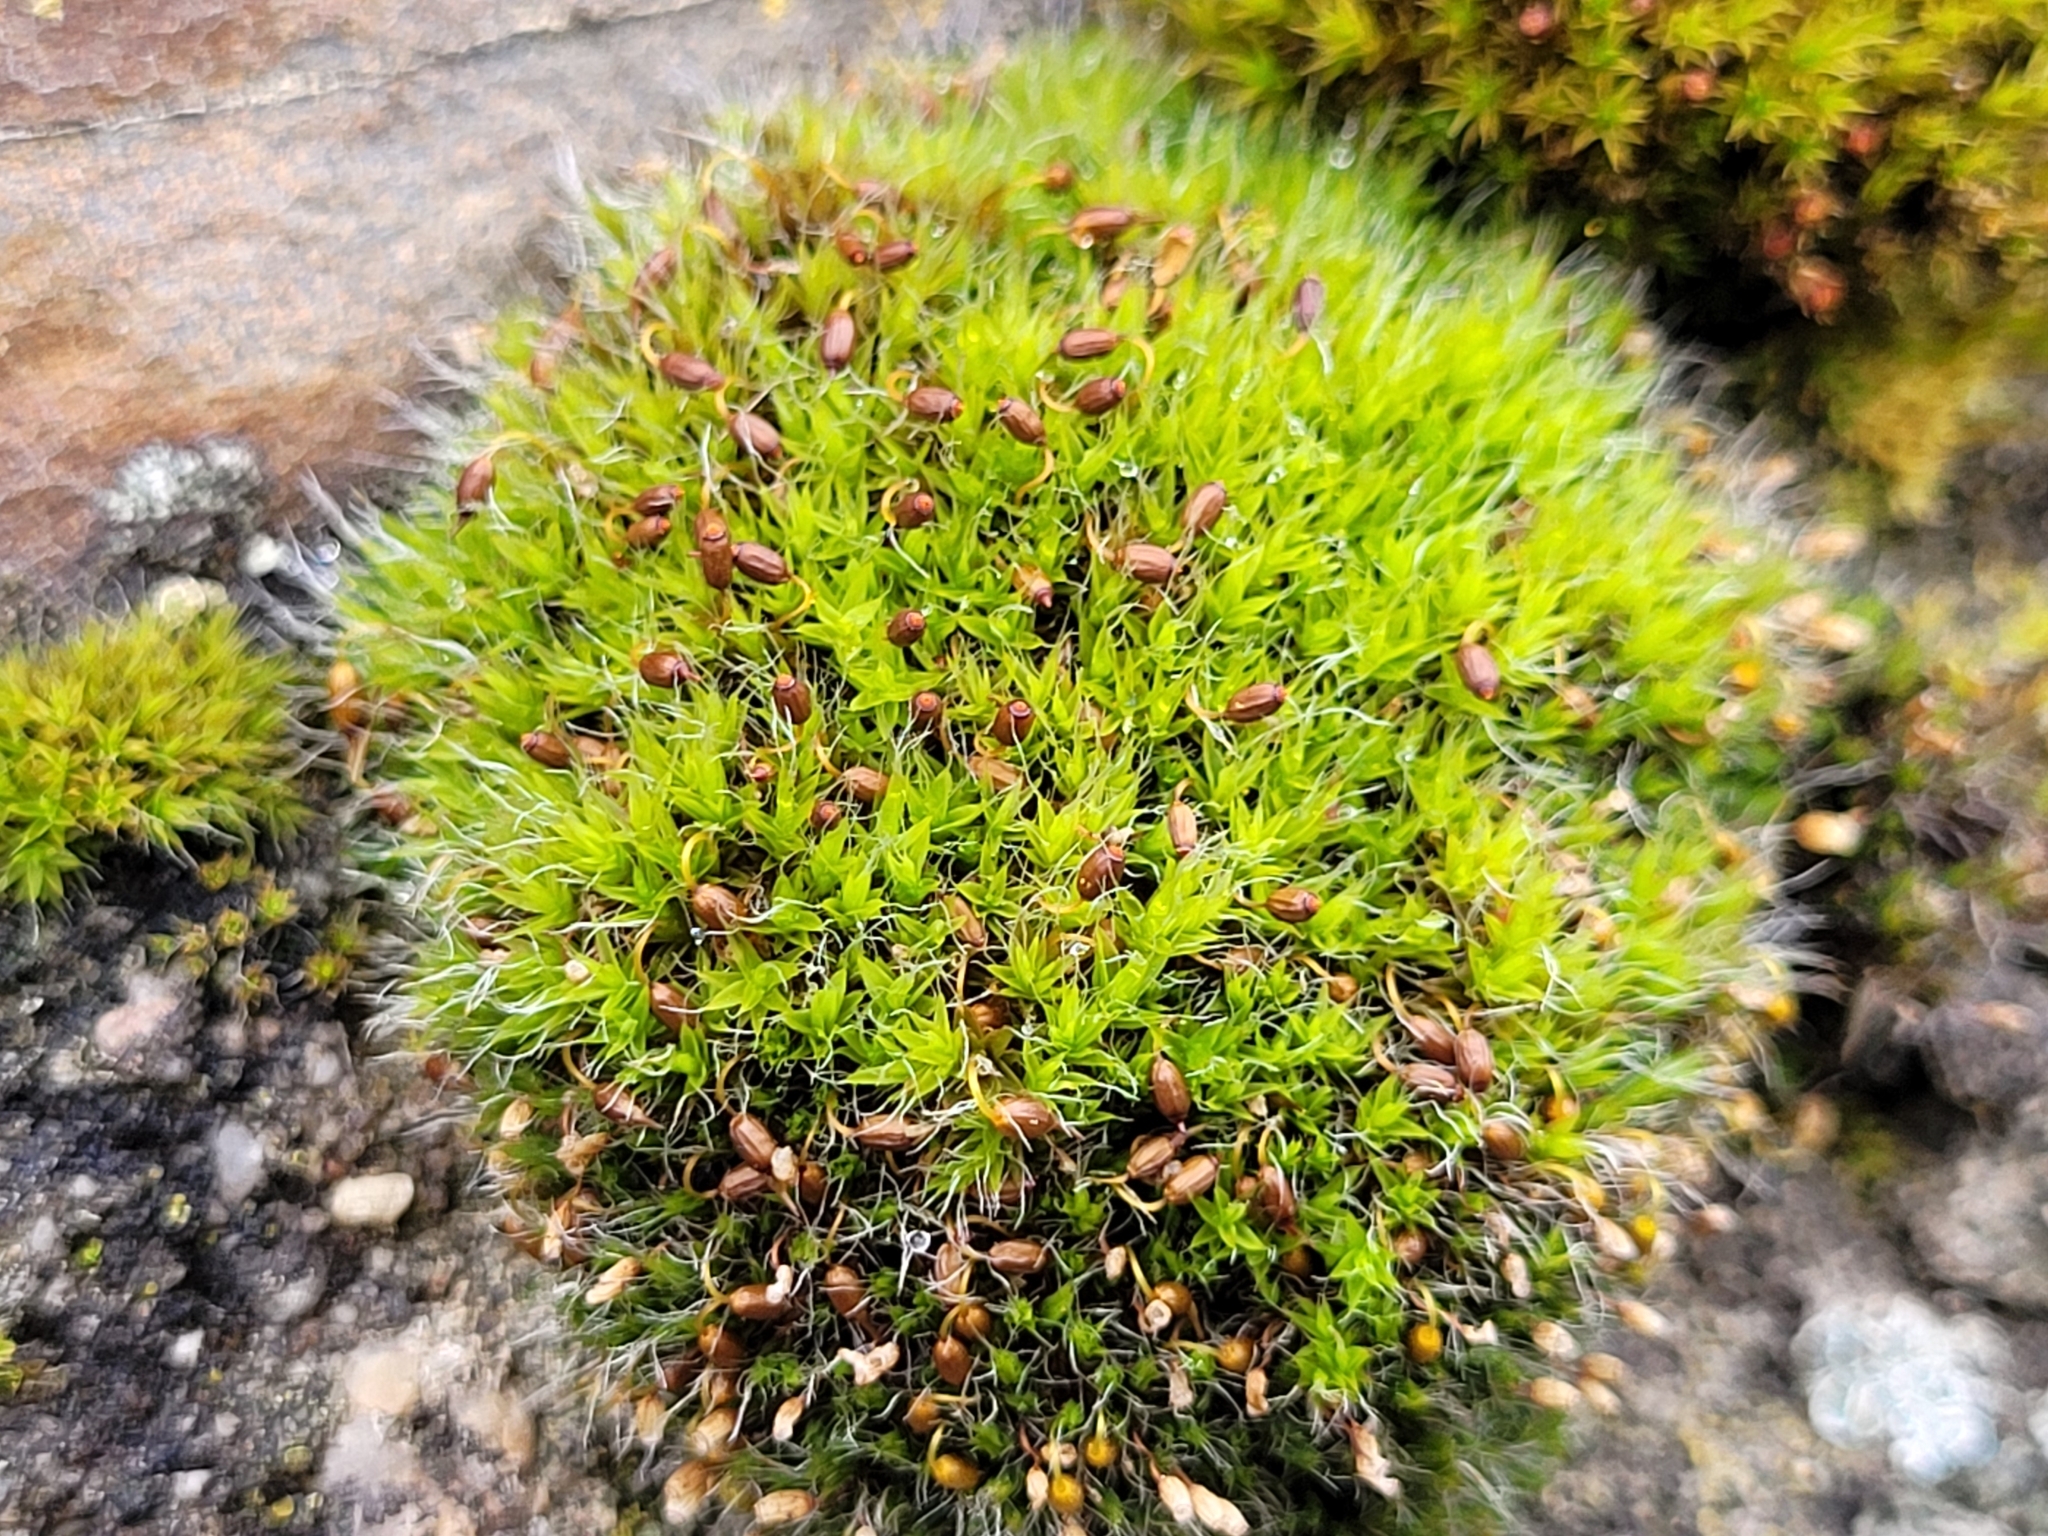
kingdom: Plantae
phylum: Bryophyta
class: Bryopsida
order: Grimmiales
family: Grimmiaceae
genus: Grimmia
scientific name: Grimmia pulvinata
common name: Grey-cushioned grimmia
